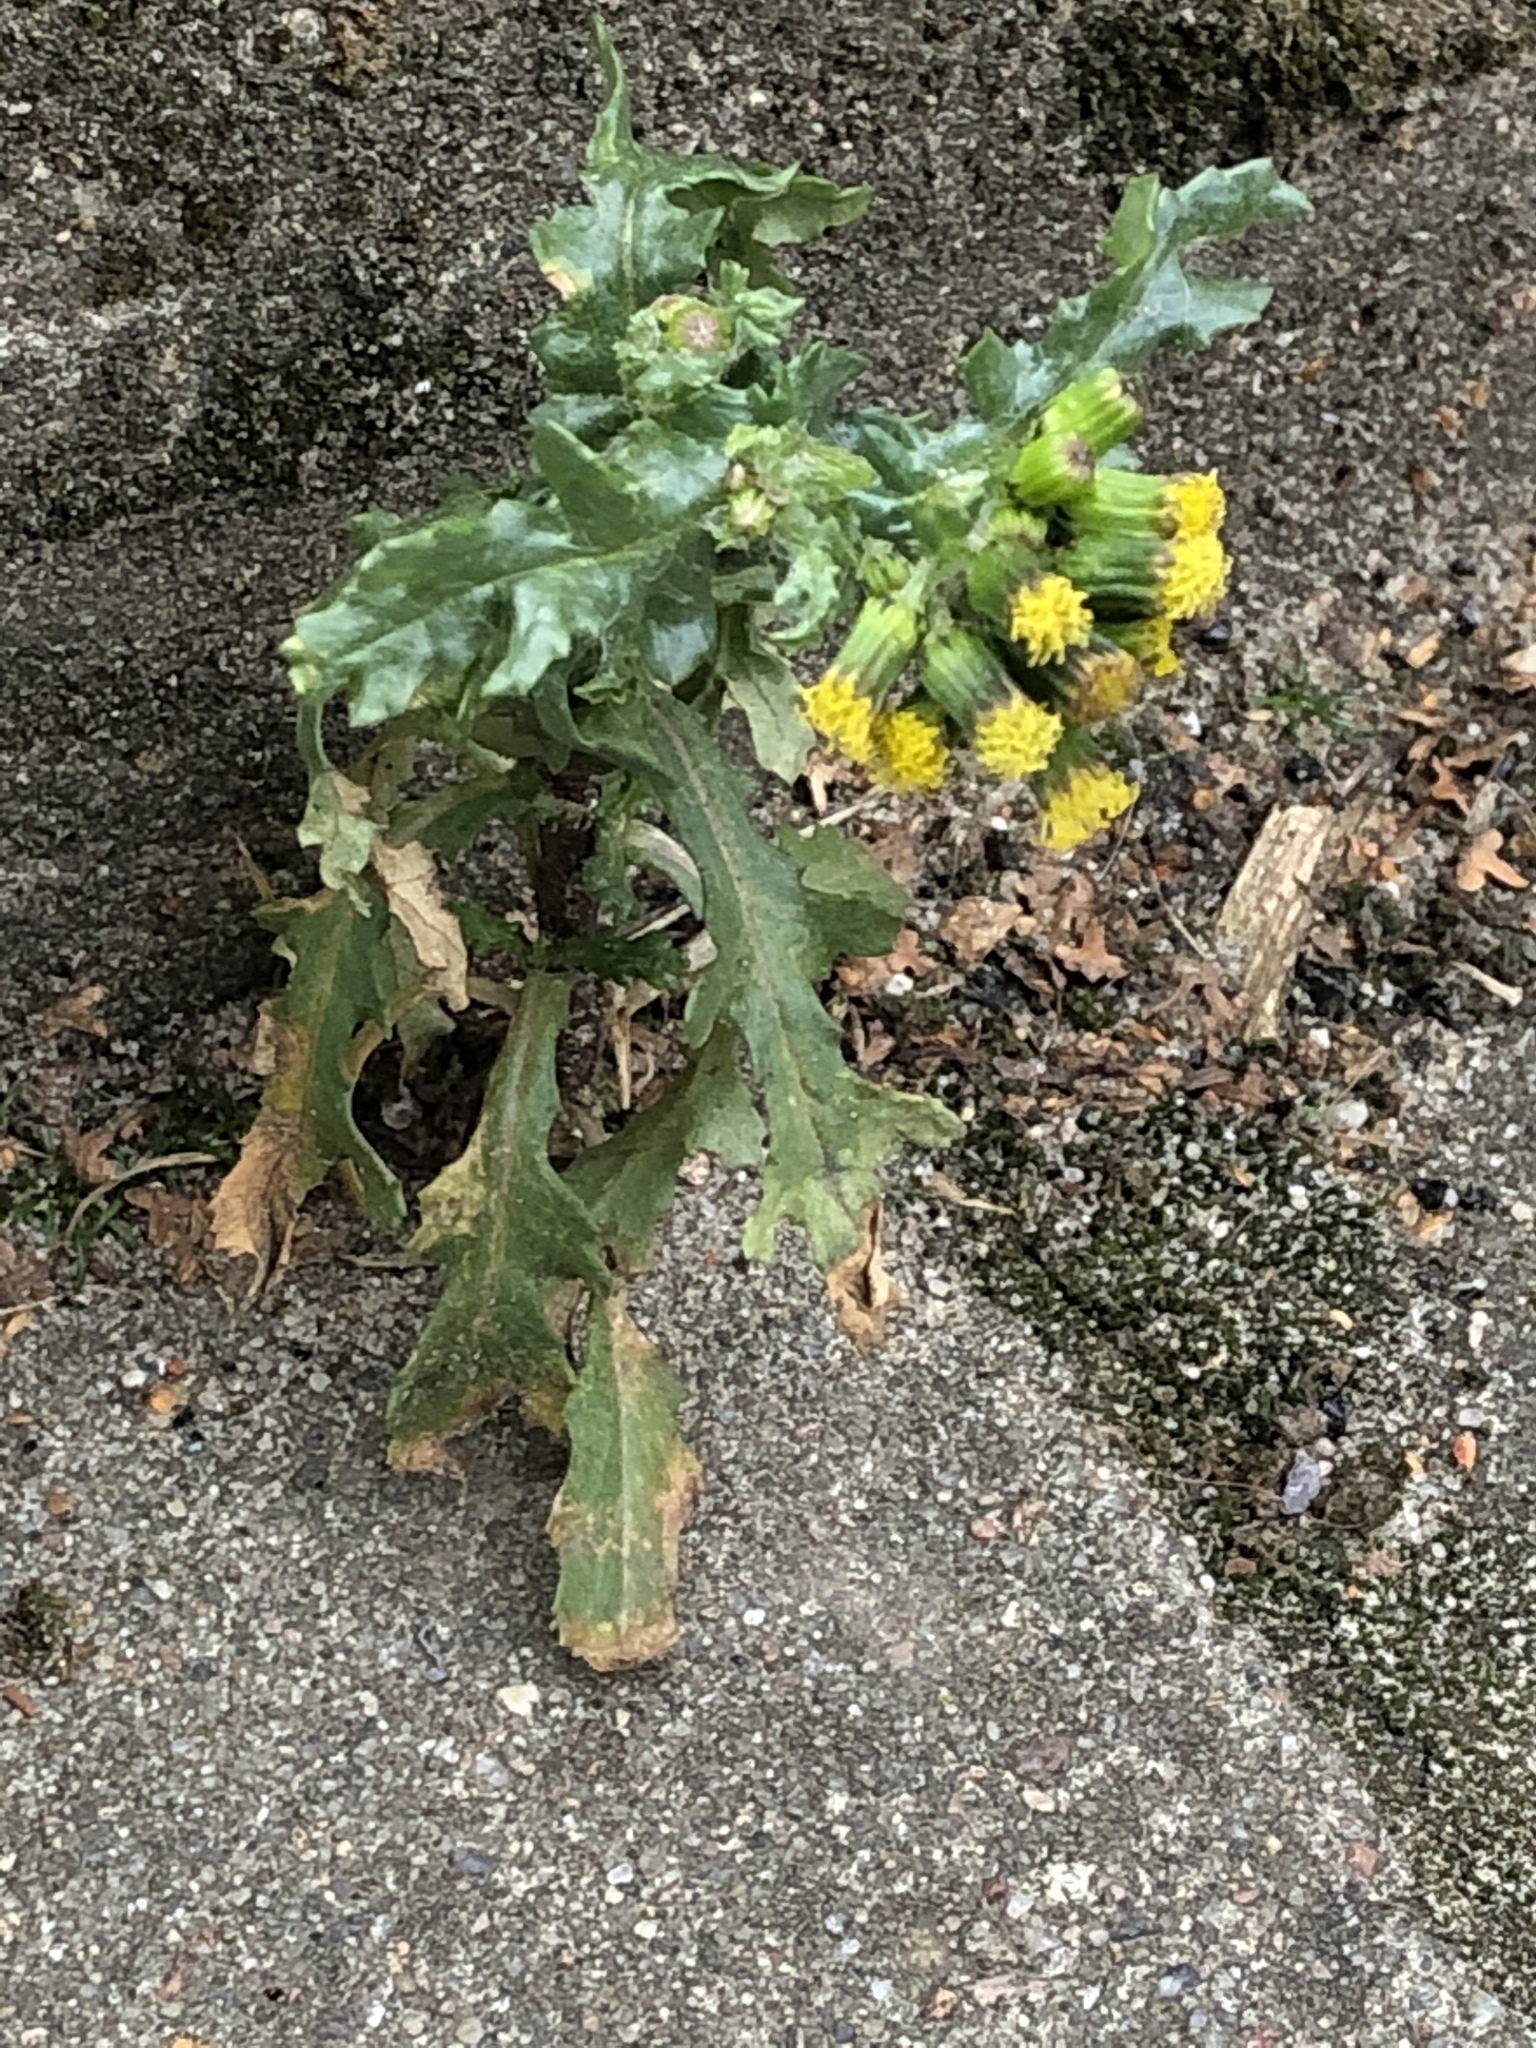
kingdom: Plantae
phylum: Tracheophyta
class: Magnoliopsida
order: Asterales
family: Asteraceae
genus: Senecio
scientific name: Senecio vulgaris
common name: Old-man-in-the-spring
